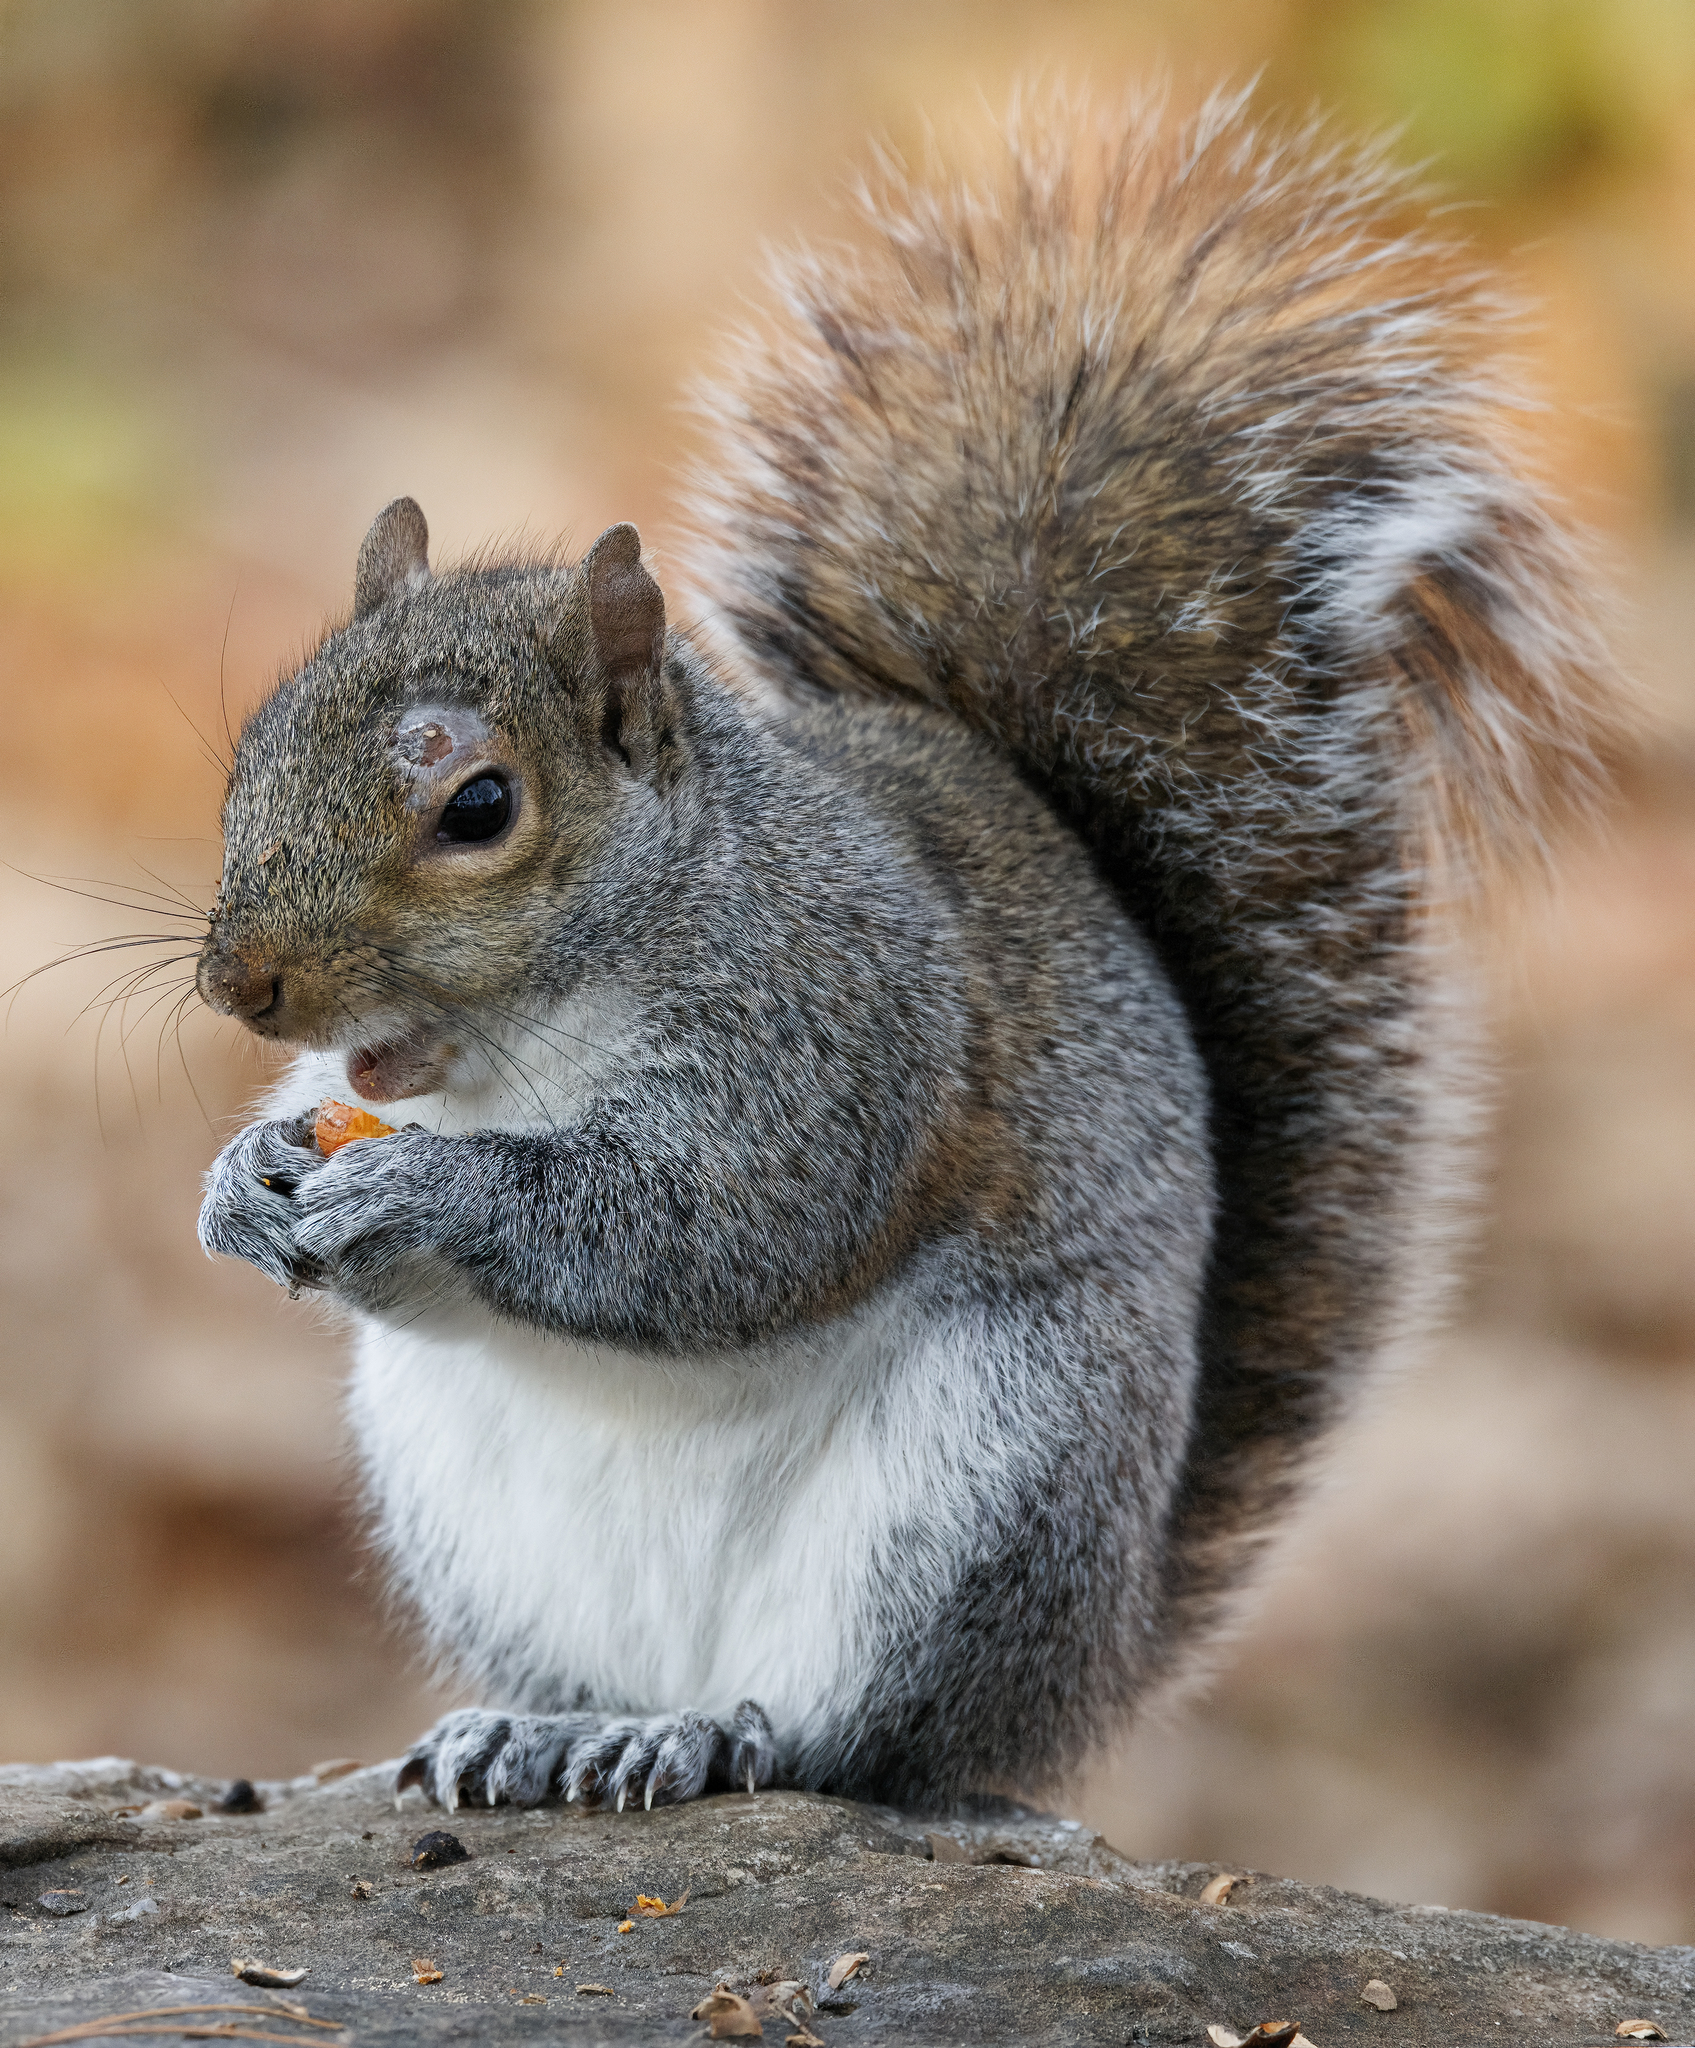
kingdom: Animalia
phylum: Chordata
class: Mammalia
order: Rodentia
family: Sciuridae
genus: Sciurus
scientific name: Sciurus carolinensis
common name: Eastern gray squirrel
